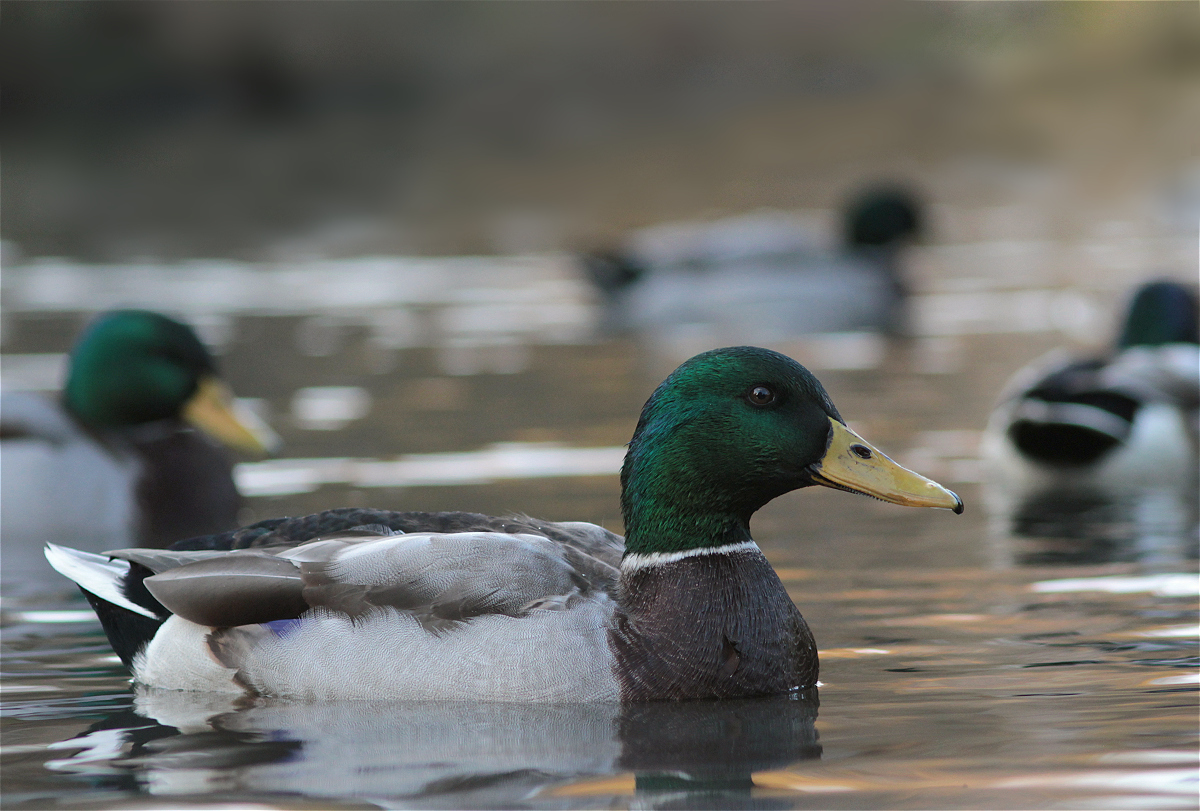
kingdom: Animalia
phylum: Chordata
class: Aves
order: Anseriformes
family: Anatidae
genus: Anas
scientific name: Anas platyrhynchos
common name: Mallard
